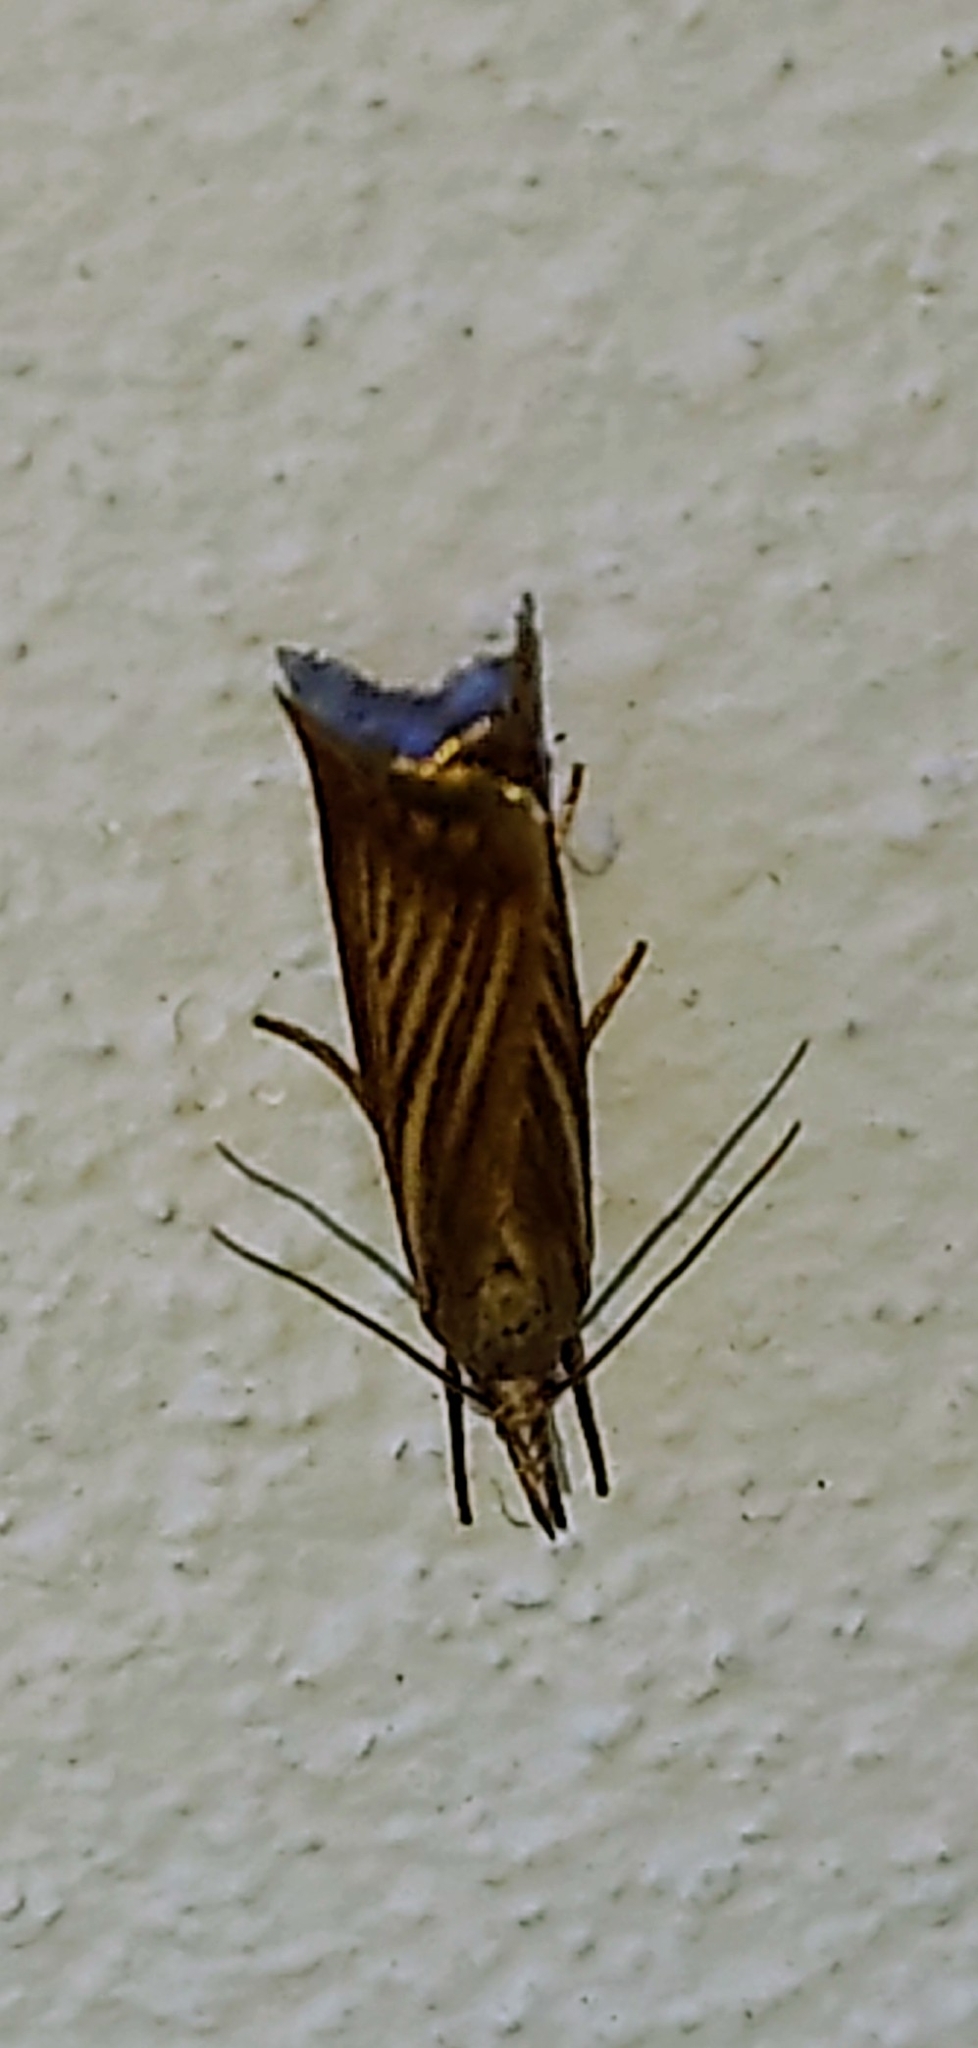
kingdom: Animalia
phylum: Arthropoda
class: Insecta
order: Lepidoptera
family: Crambidae
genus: Chrysoteuchia
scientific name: Chrysoteuchia culmella
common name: Garden grass-veneer
